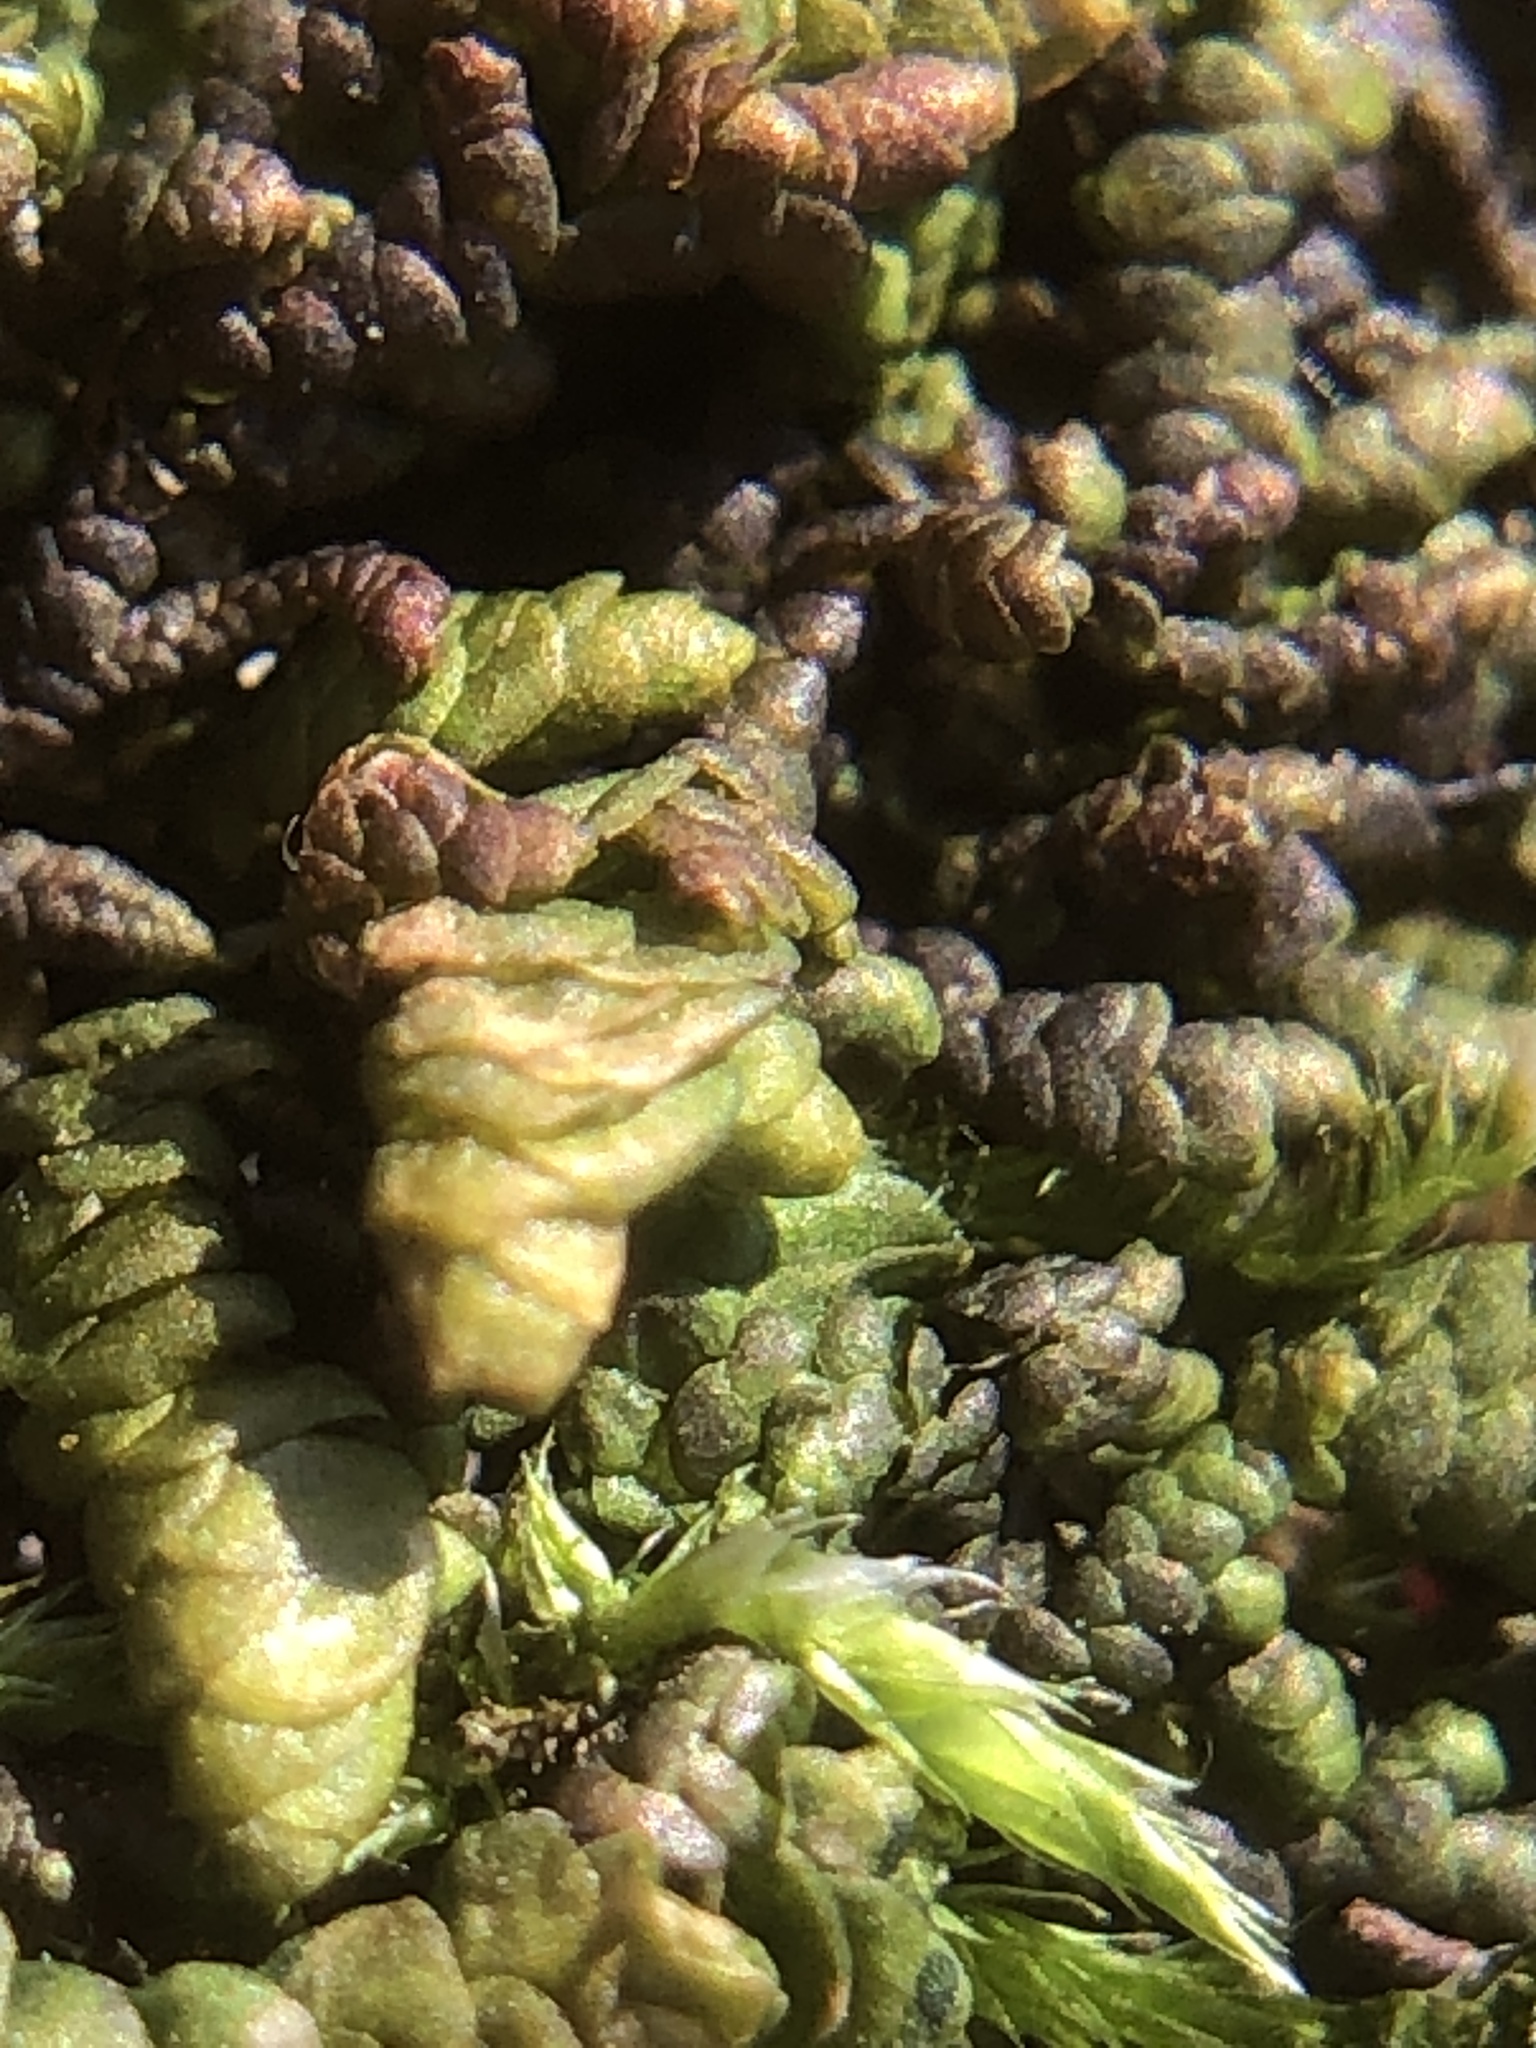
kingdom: Plantae
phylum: Marchantiophyta
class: Jungermanniopsida
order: Porellales
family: Porellaceae
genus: Porella
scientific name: Porella obtusata
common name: Broad scalewort
